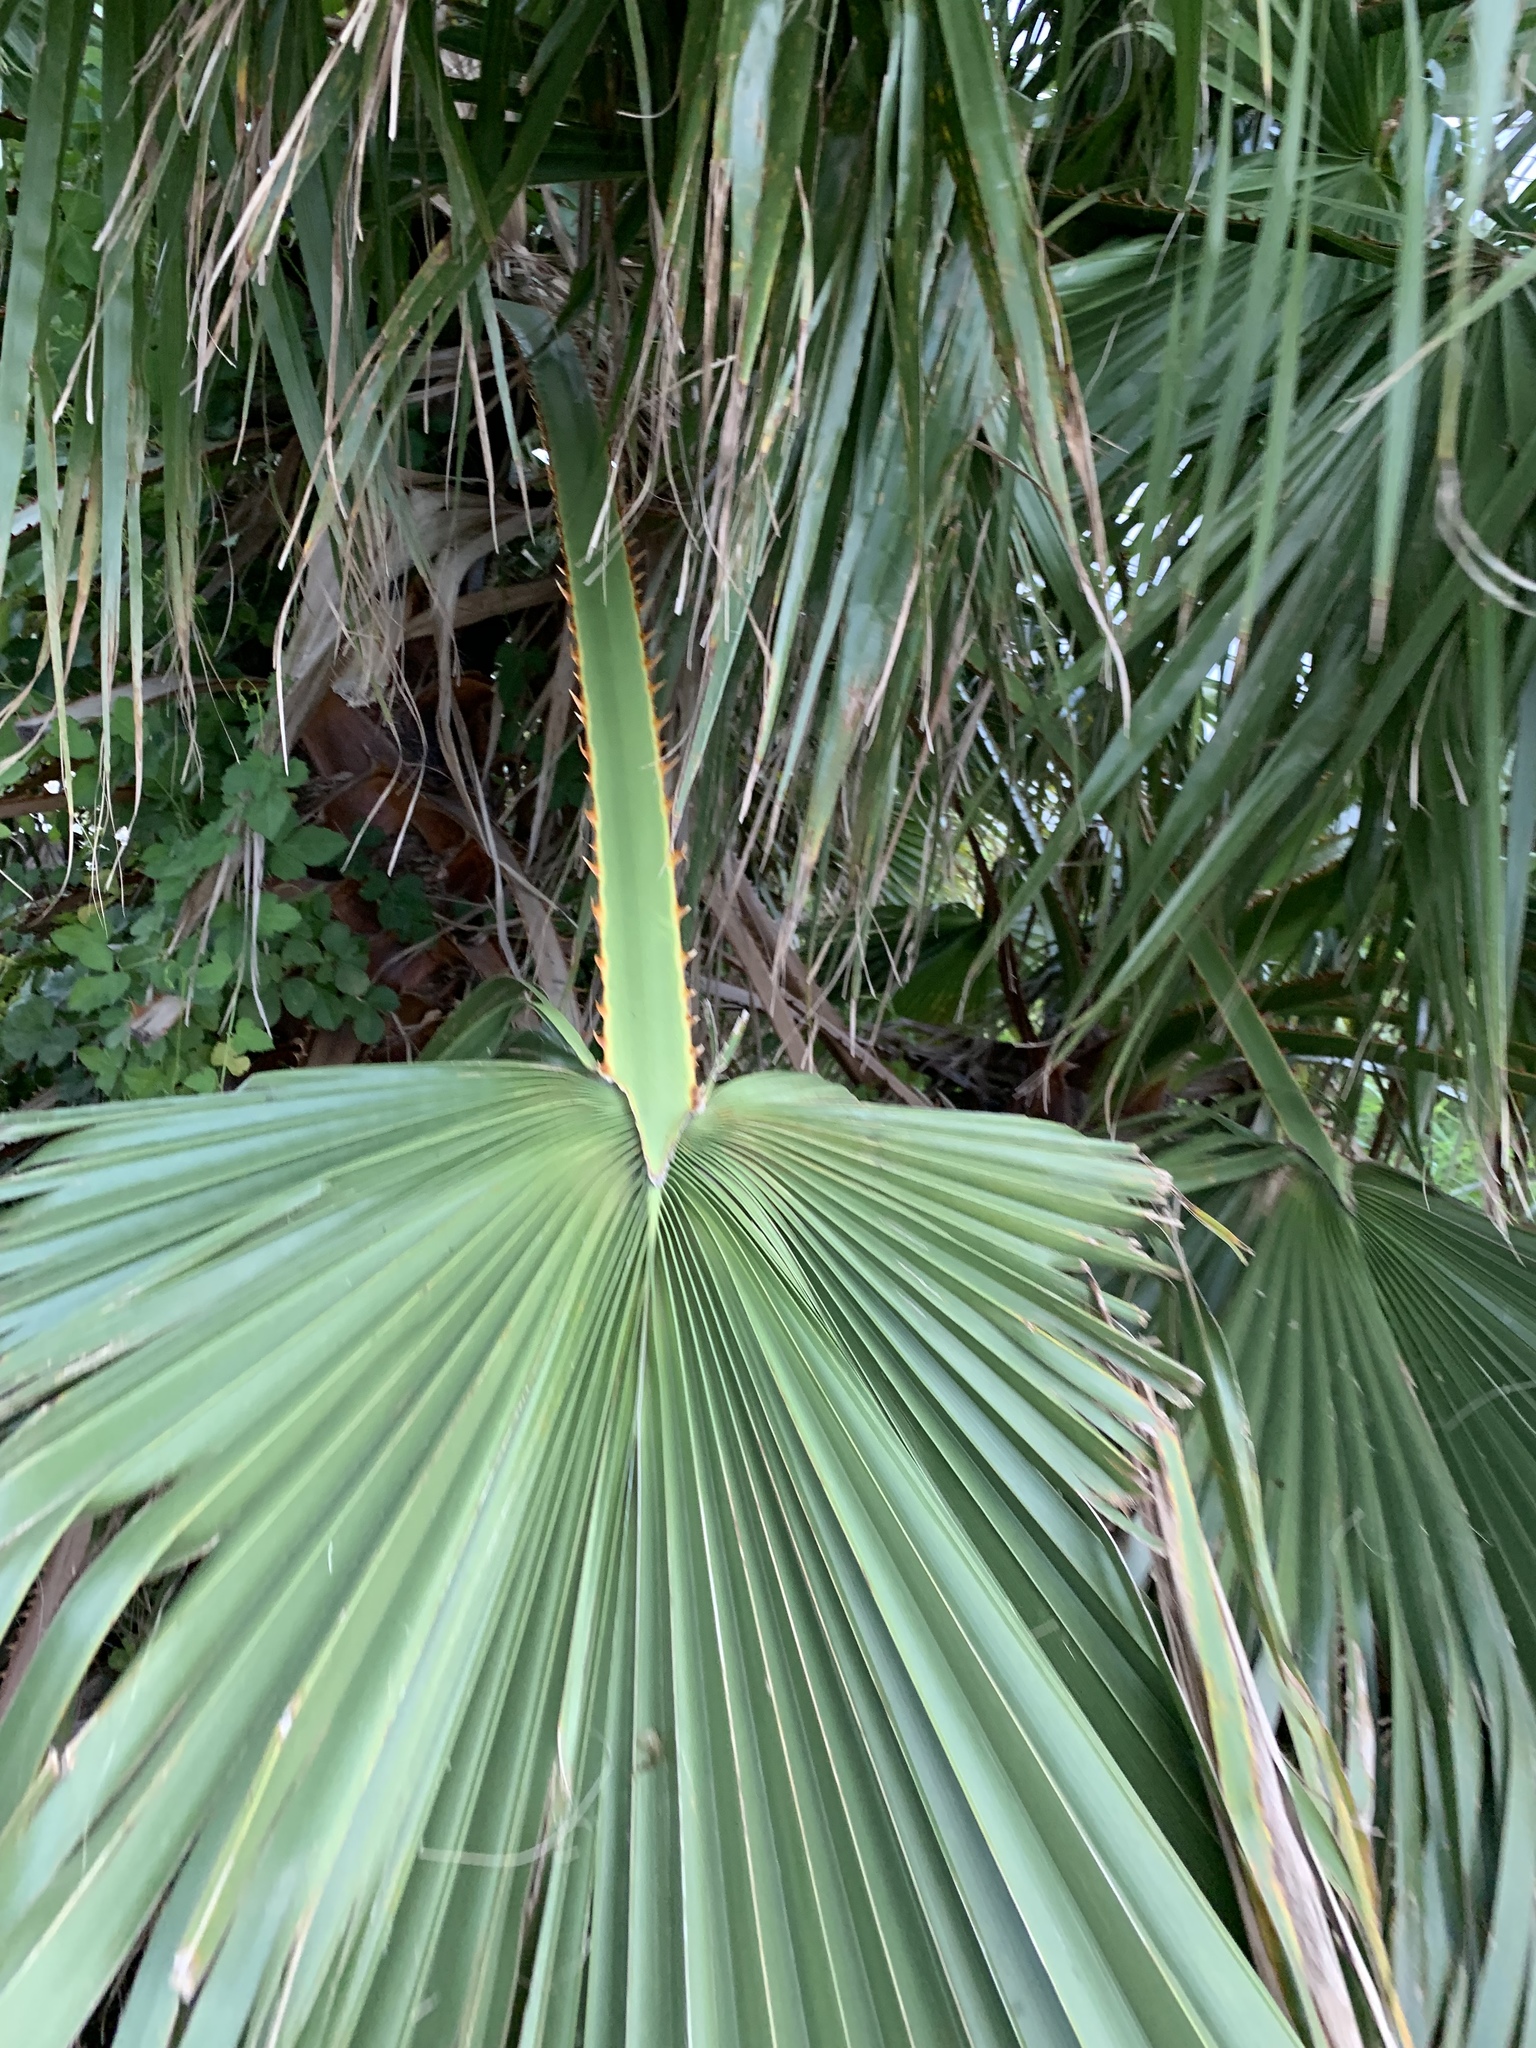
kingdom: Plantae
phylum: Tracheophyta
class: Liliopsida
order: Arecales
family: Arecaceae
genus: Washingtonia
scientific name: Washingtonia robusta
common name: Mexican fan palm
